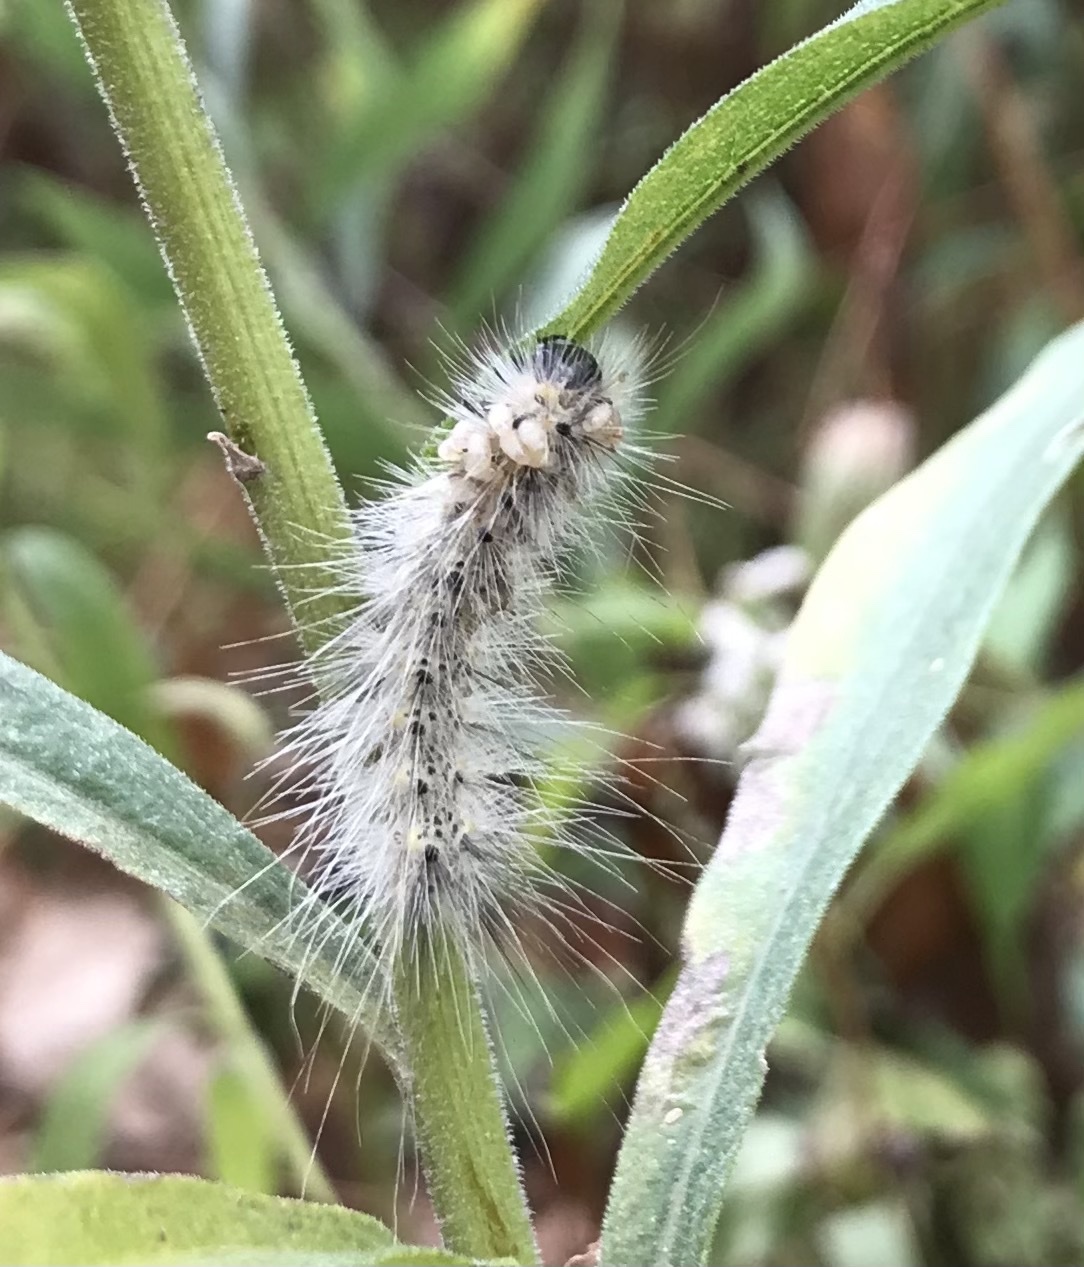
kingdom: Animalia
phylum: Arthropoda
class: Insecta
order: Lepidoptera
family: Erebidae
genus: Hyphantria
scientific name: Hyphantria cunea
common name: American white moth
